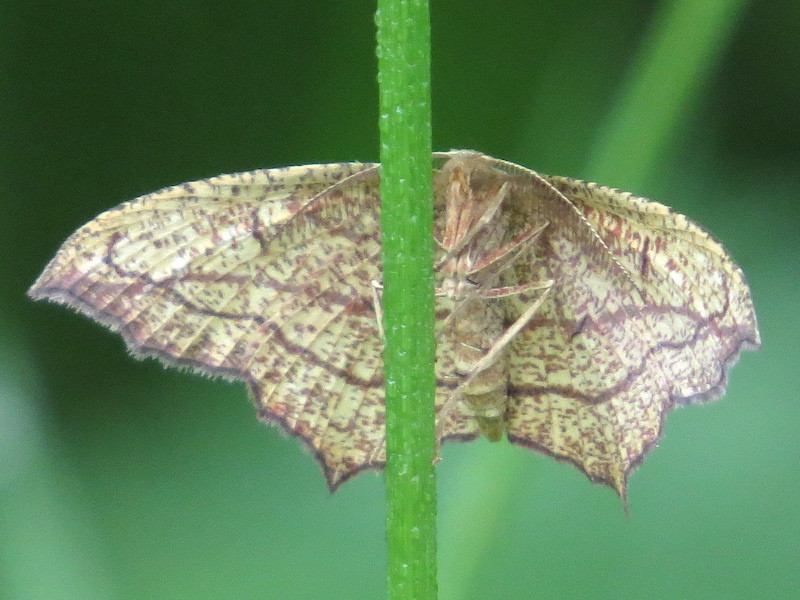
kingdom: Animalia
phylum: Arthropoda
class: Insecta
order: Lepidoptera
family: Geometridae
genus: Timandra
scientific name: Timandra amaturaria
